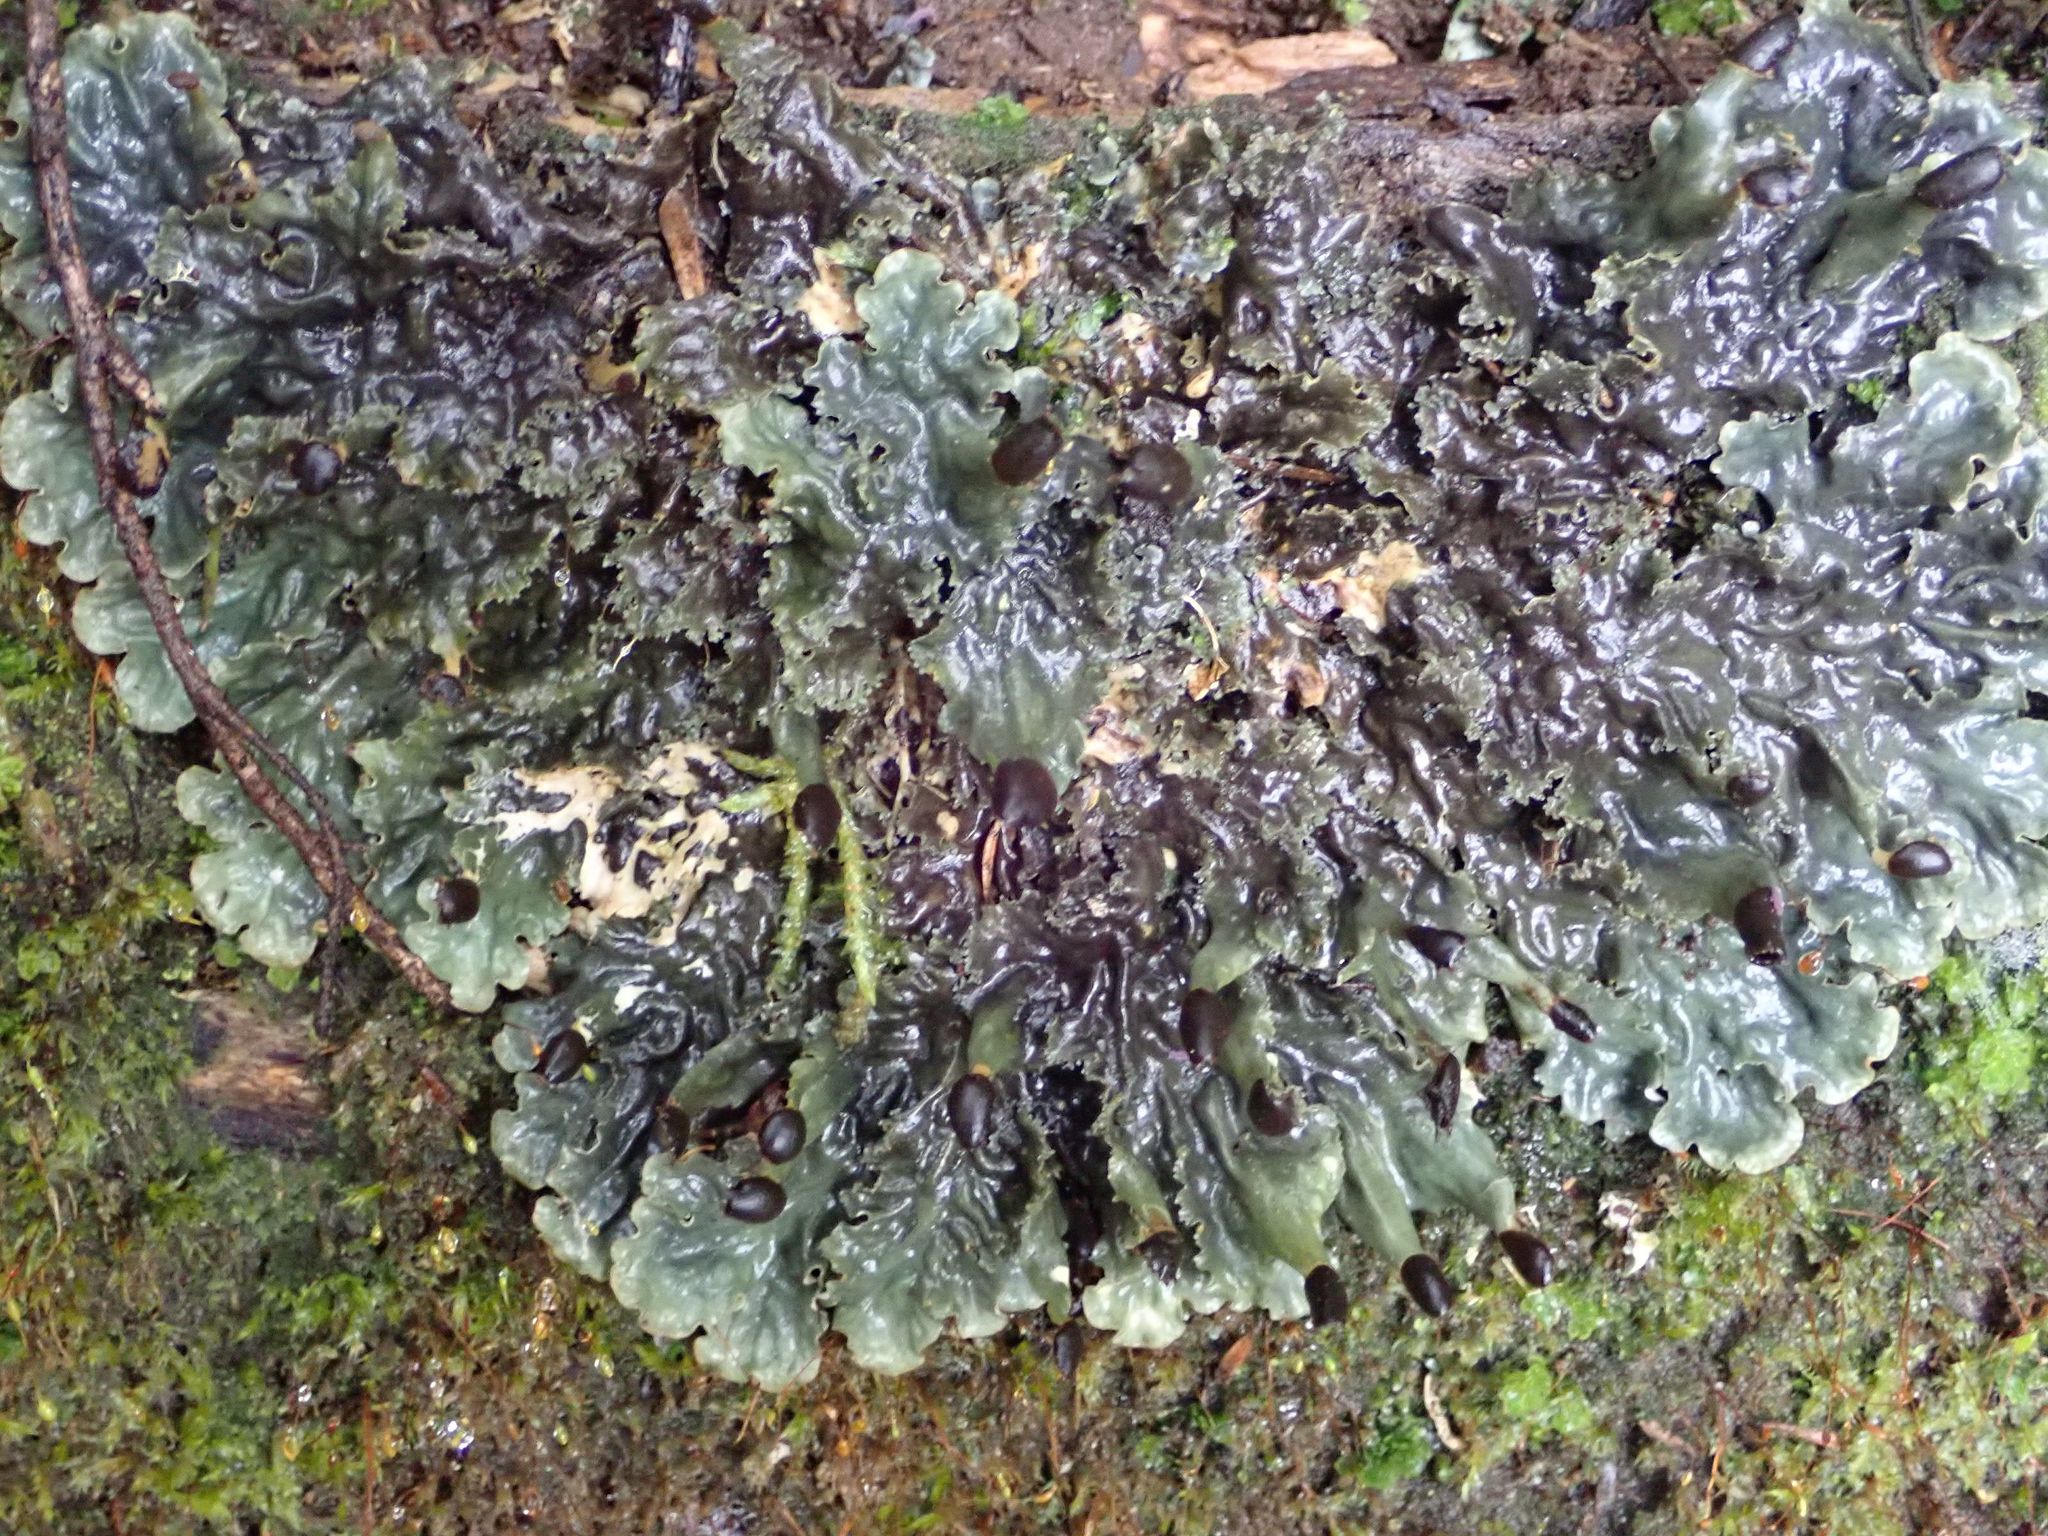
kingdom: Fungi
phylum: Ascomycota
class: Lecanoromycetes
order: Peltigerales
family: Peltigeraceae
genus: Peltigera
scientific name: Peltigera nana
